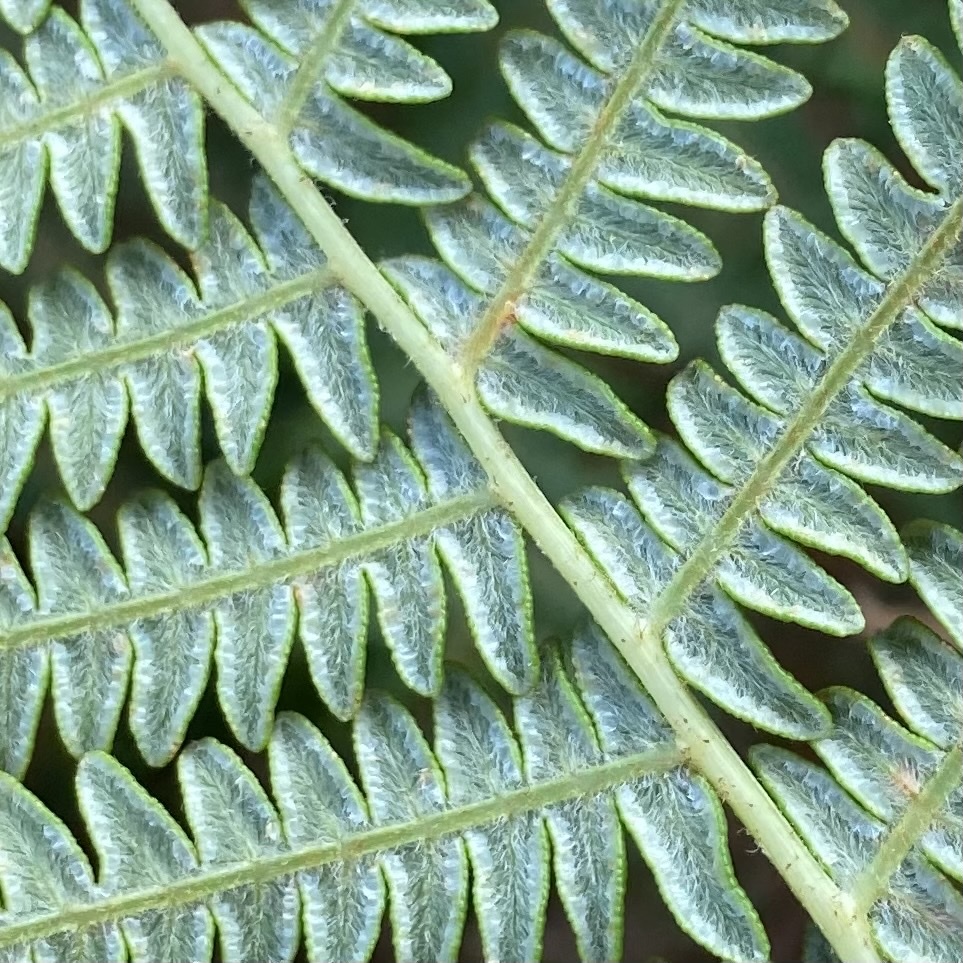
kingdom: Plantae
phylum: Tracheophyta
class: Polypodiopsida
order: Polypodiales
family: Dennstaedtiaceae
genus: Pteridium
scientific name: Pteridium aquilinum
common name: Bracken
